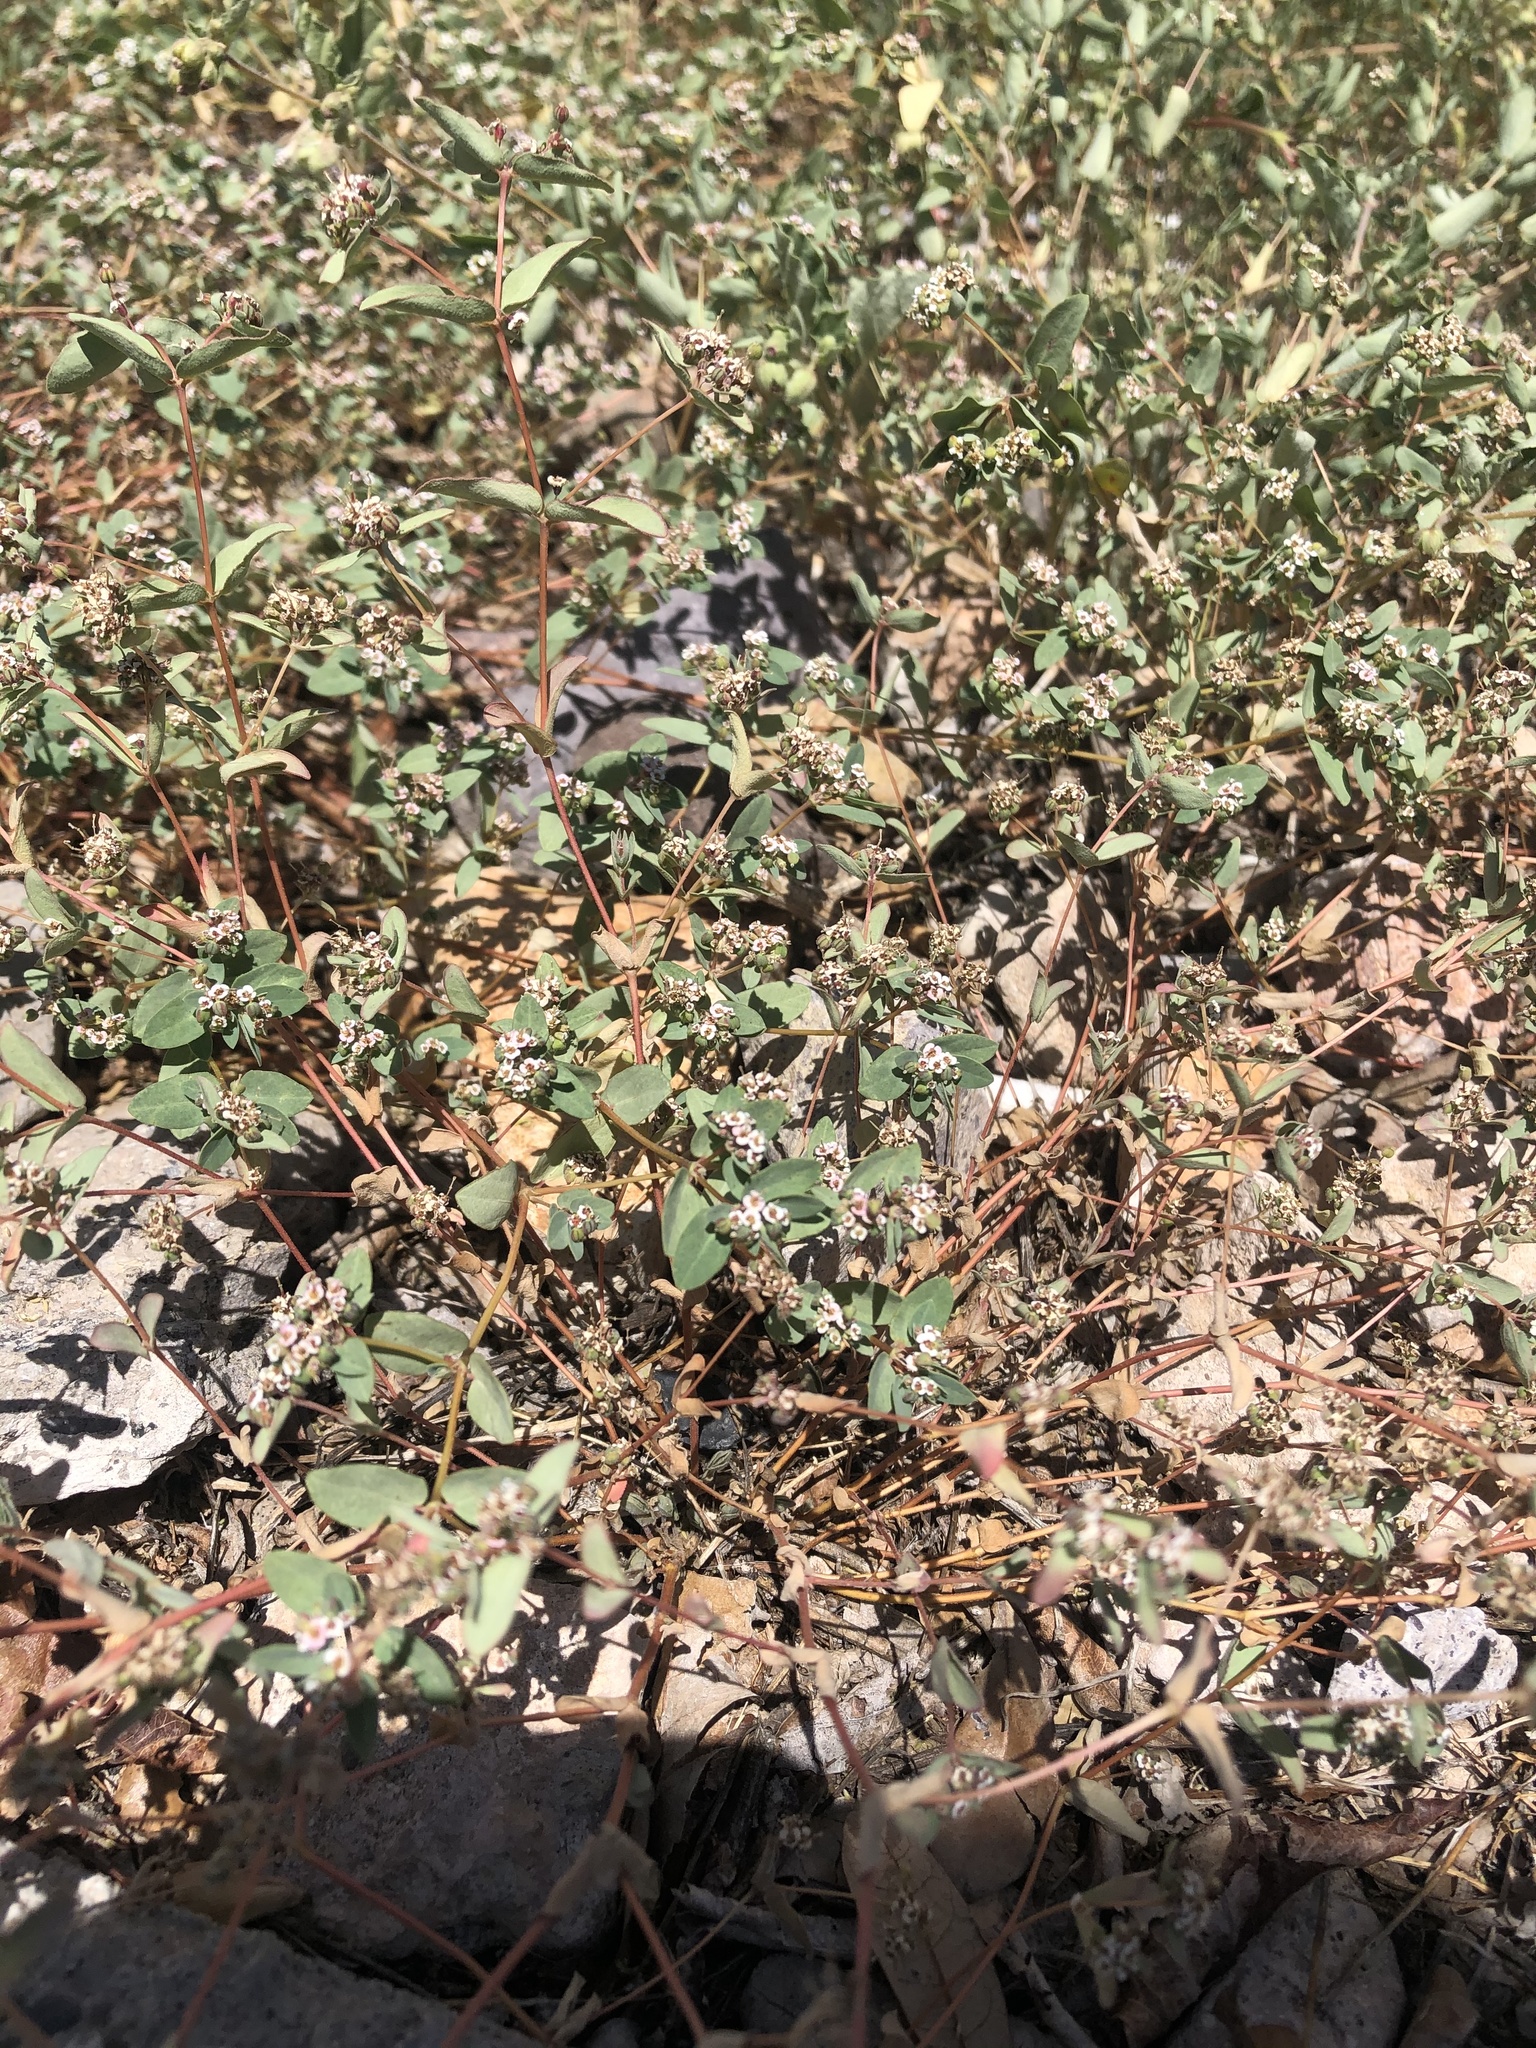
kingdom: Plantae
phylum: Tracheophyta
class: Magnoliopsida
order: Malpighiales
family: Euphorbiaceae
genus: Euphorbia
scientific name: Euphorbia capitellata
